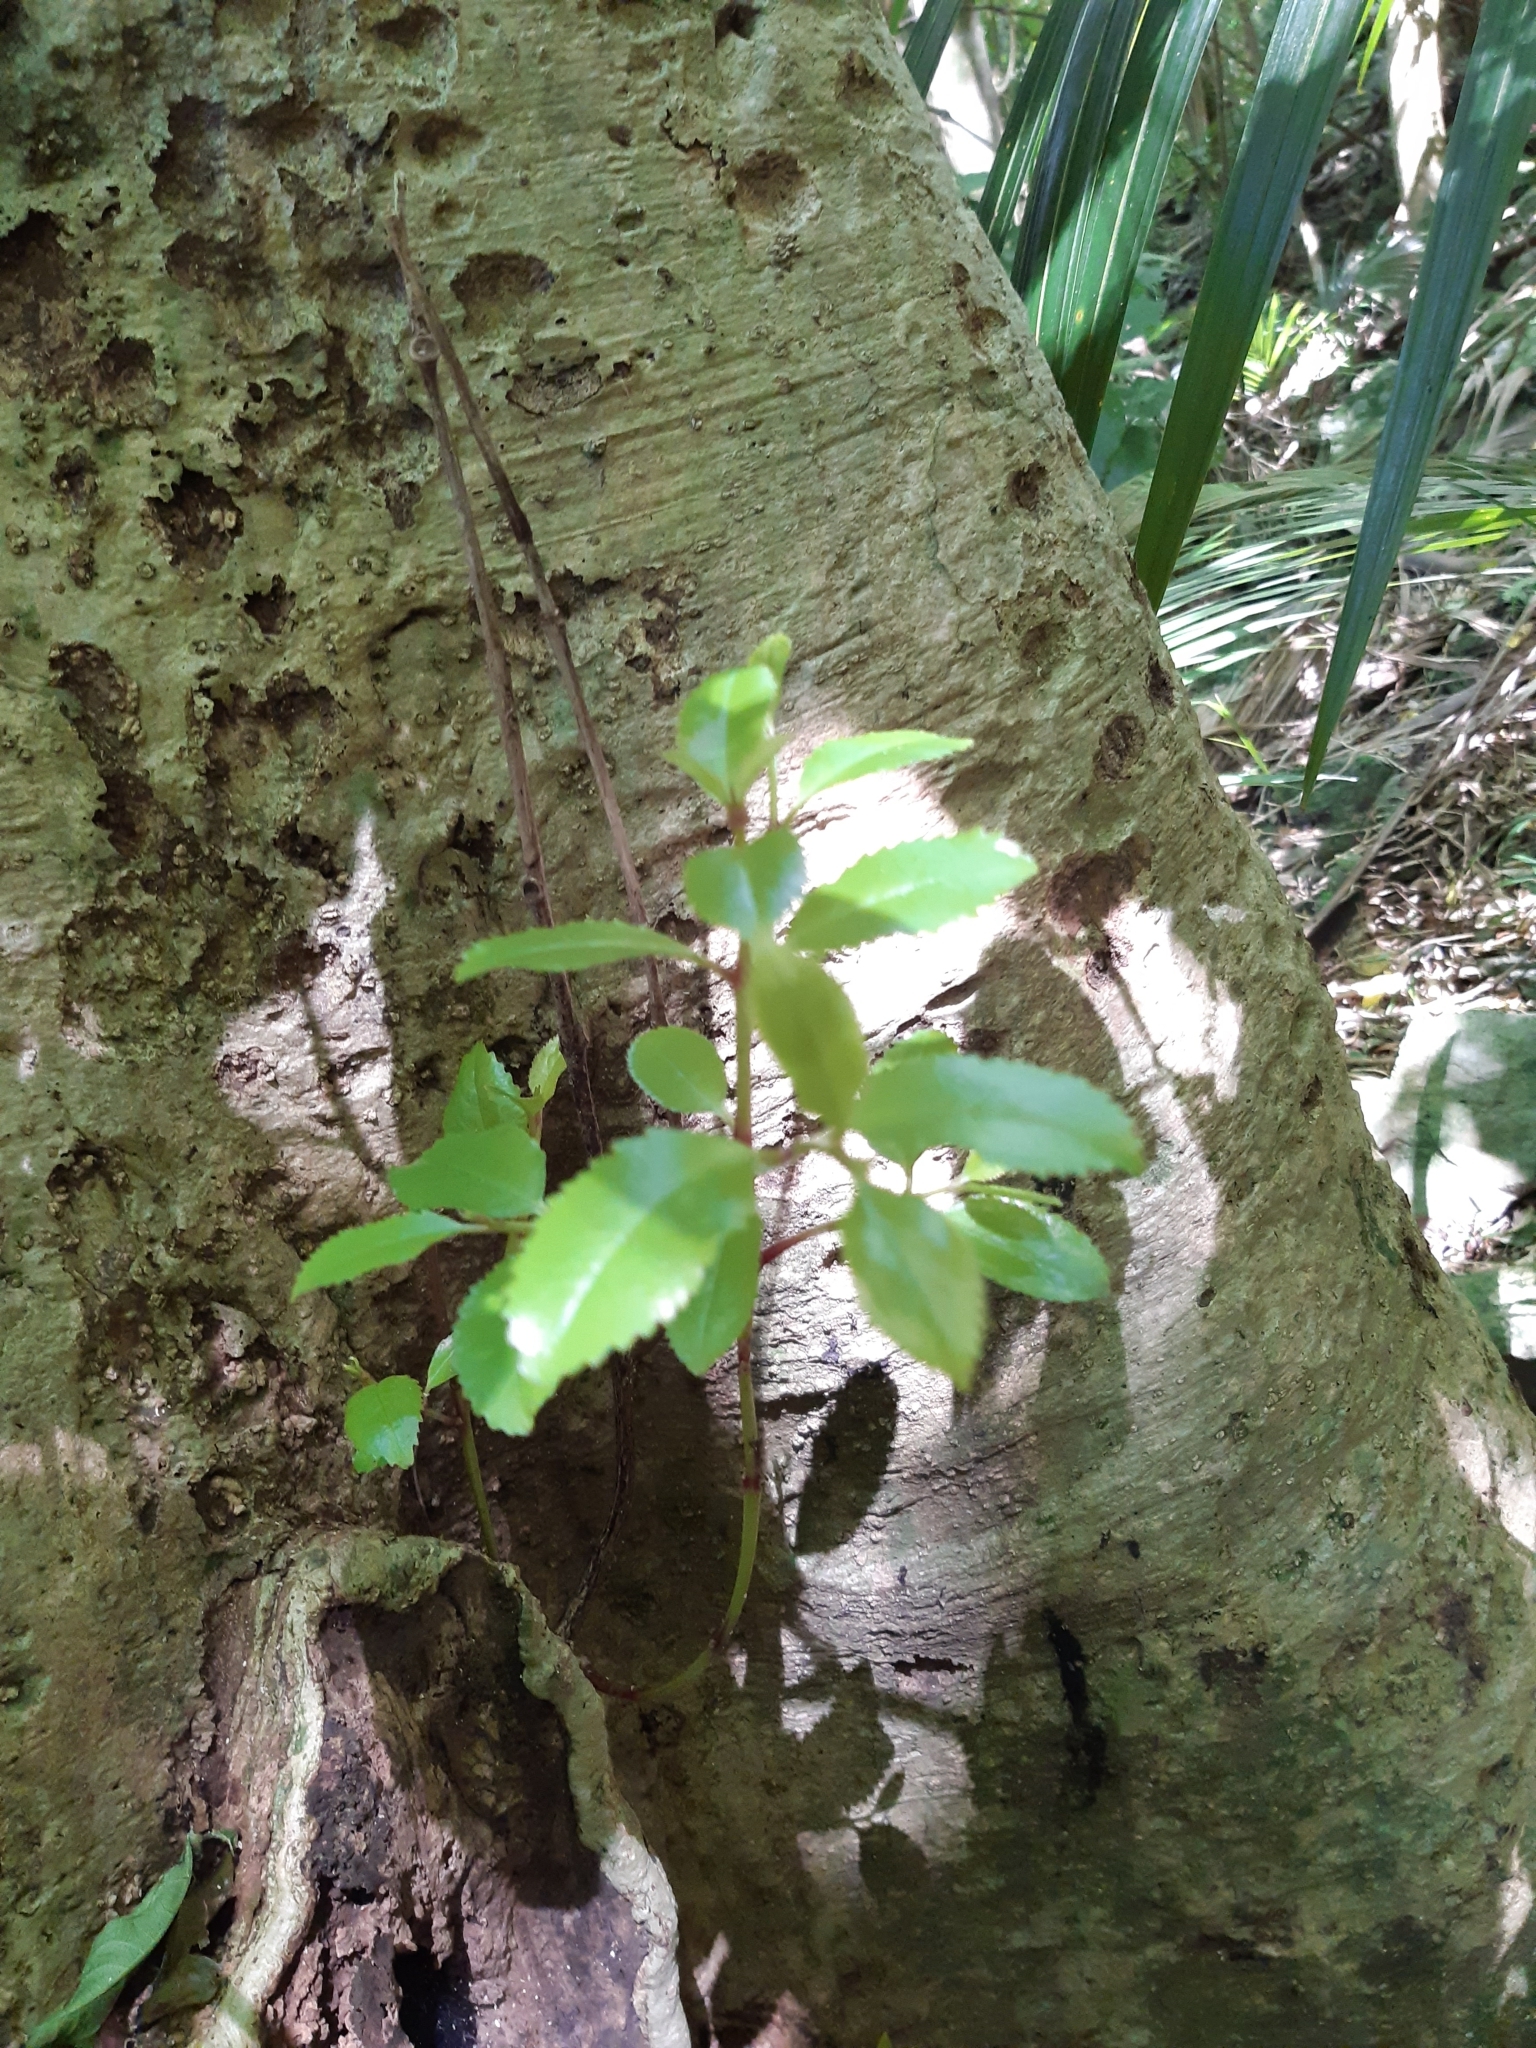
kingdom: Plantae
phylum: Tracheophyta
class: Magnoliopsida
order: Laurales
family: Atherospermataceae
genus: Laurelia
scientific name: Laurelia novae-zelandiae
